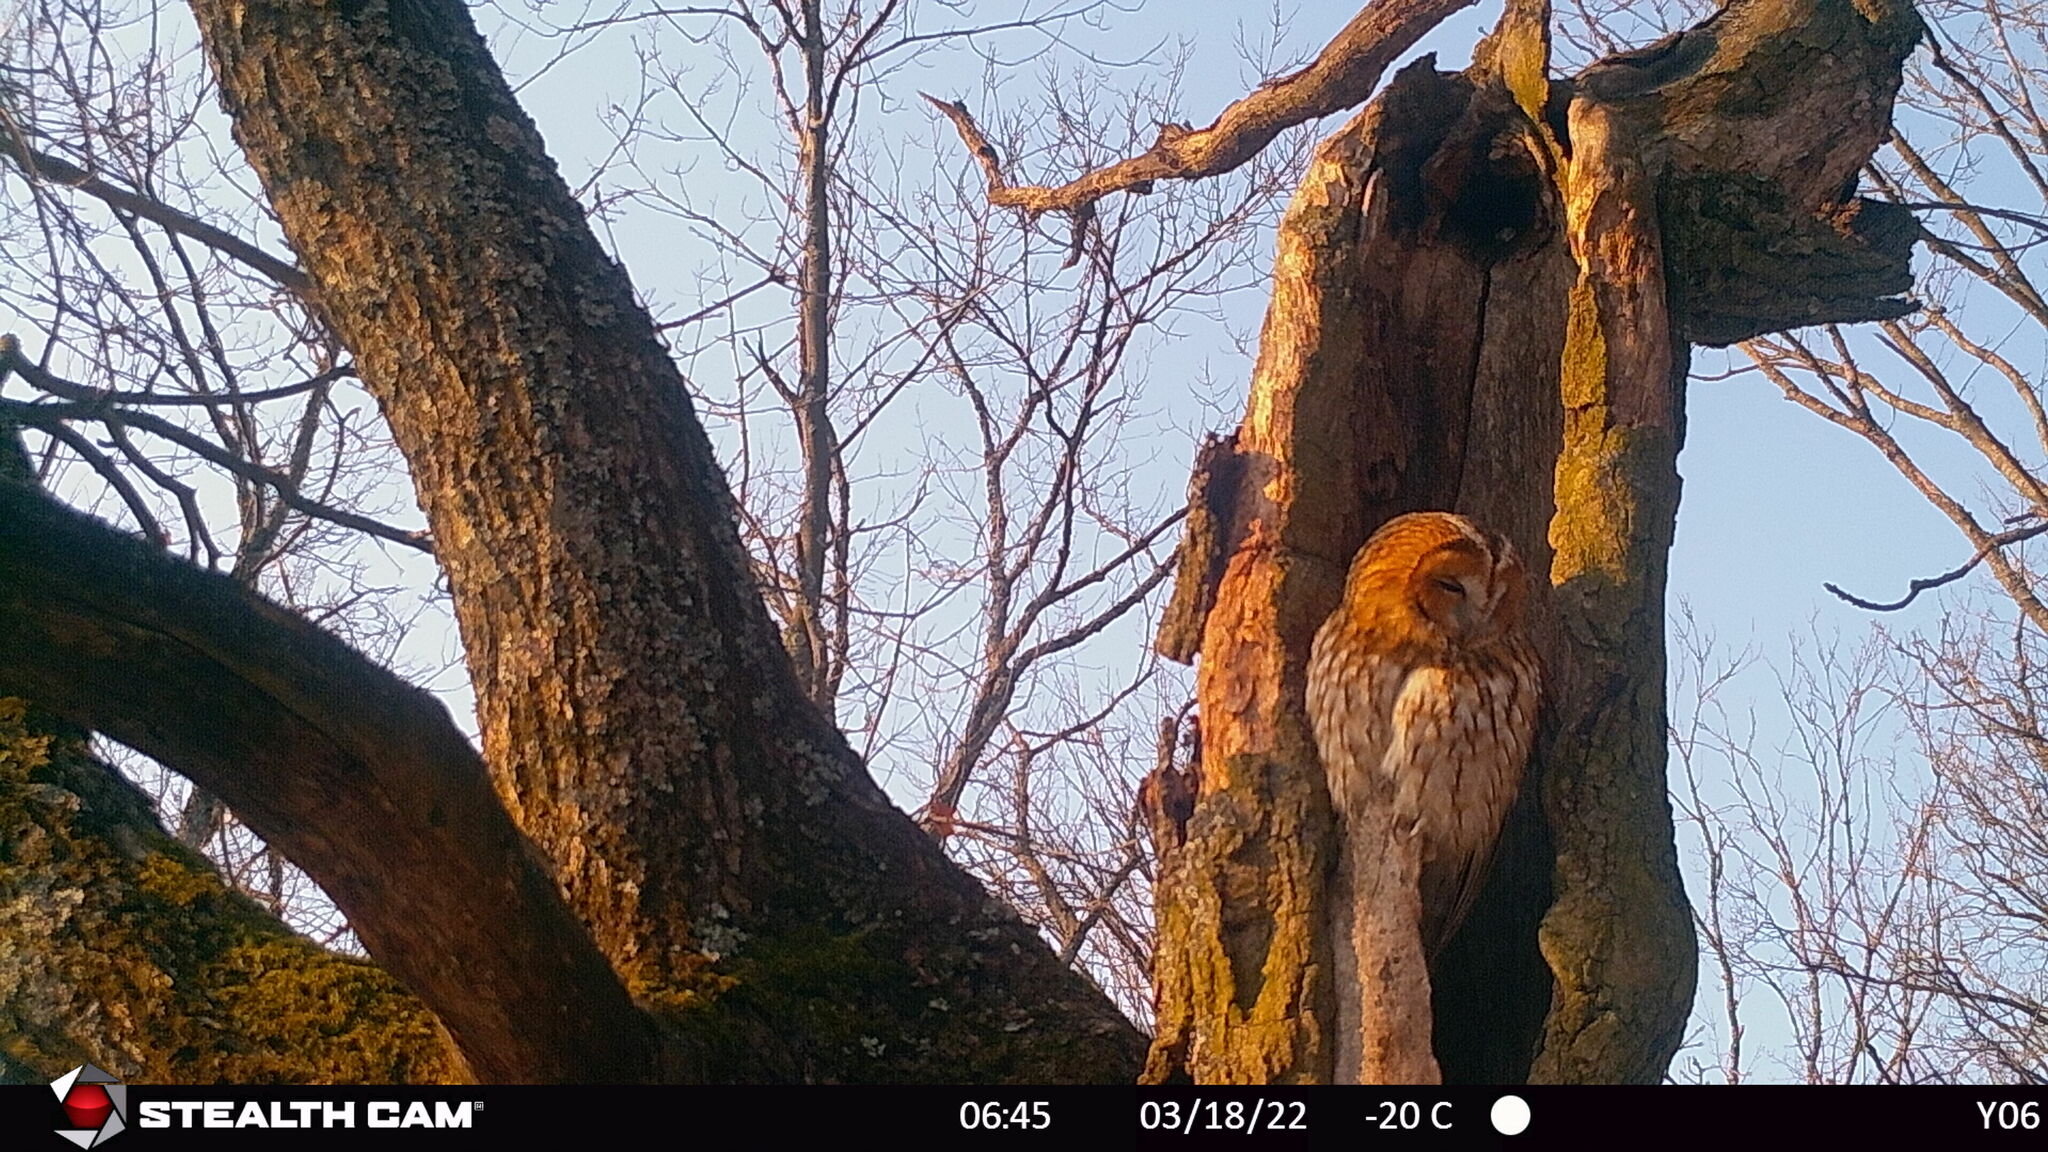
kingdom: Animalia
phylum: Chordata
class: Aves
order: Strigiformes
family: Strigidae
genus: Strix
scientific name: Strix aluco
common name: Tawny owl
